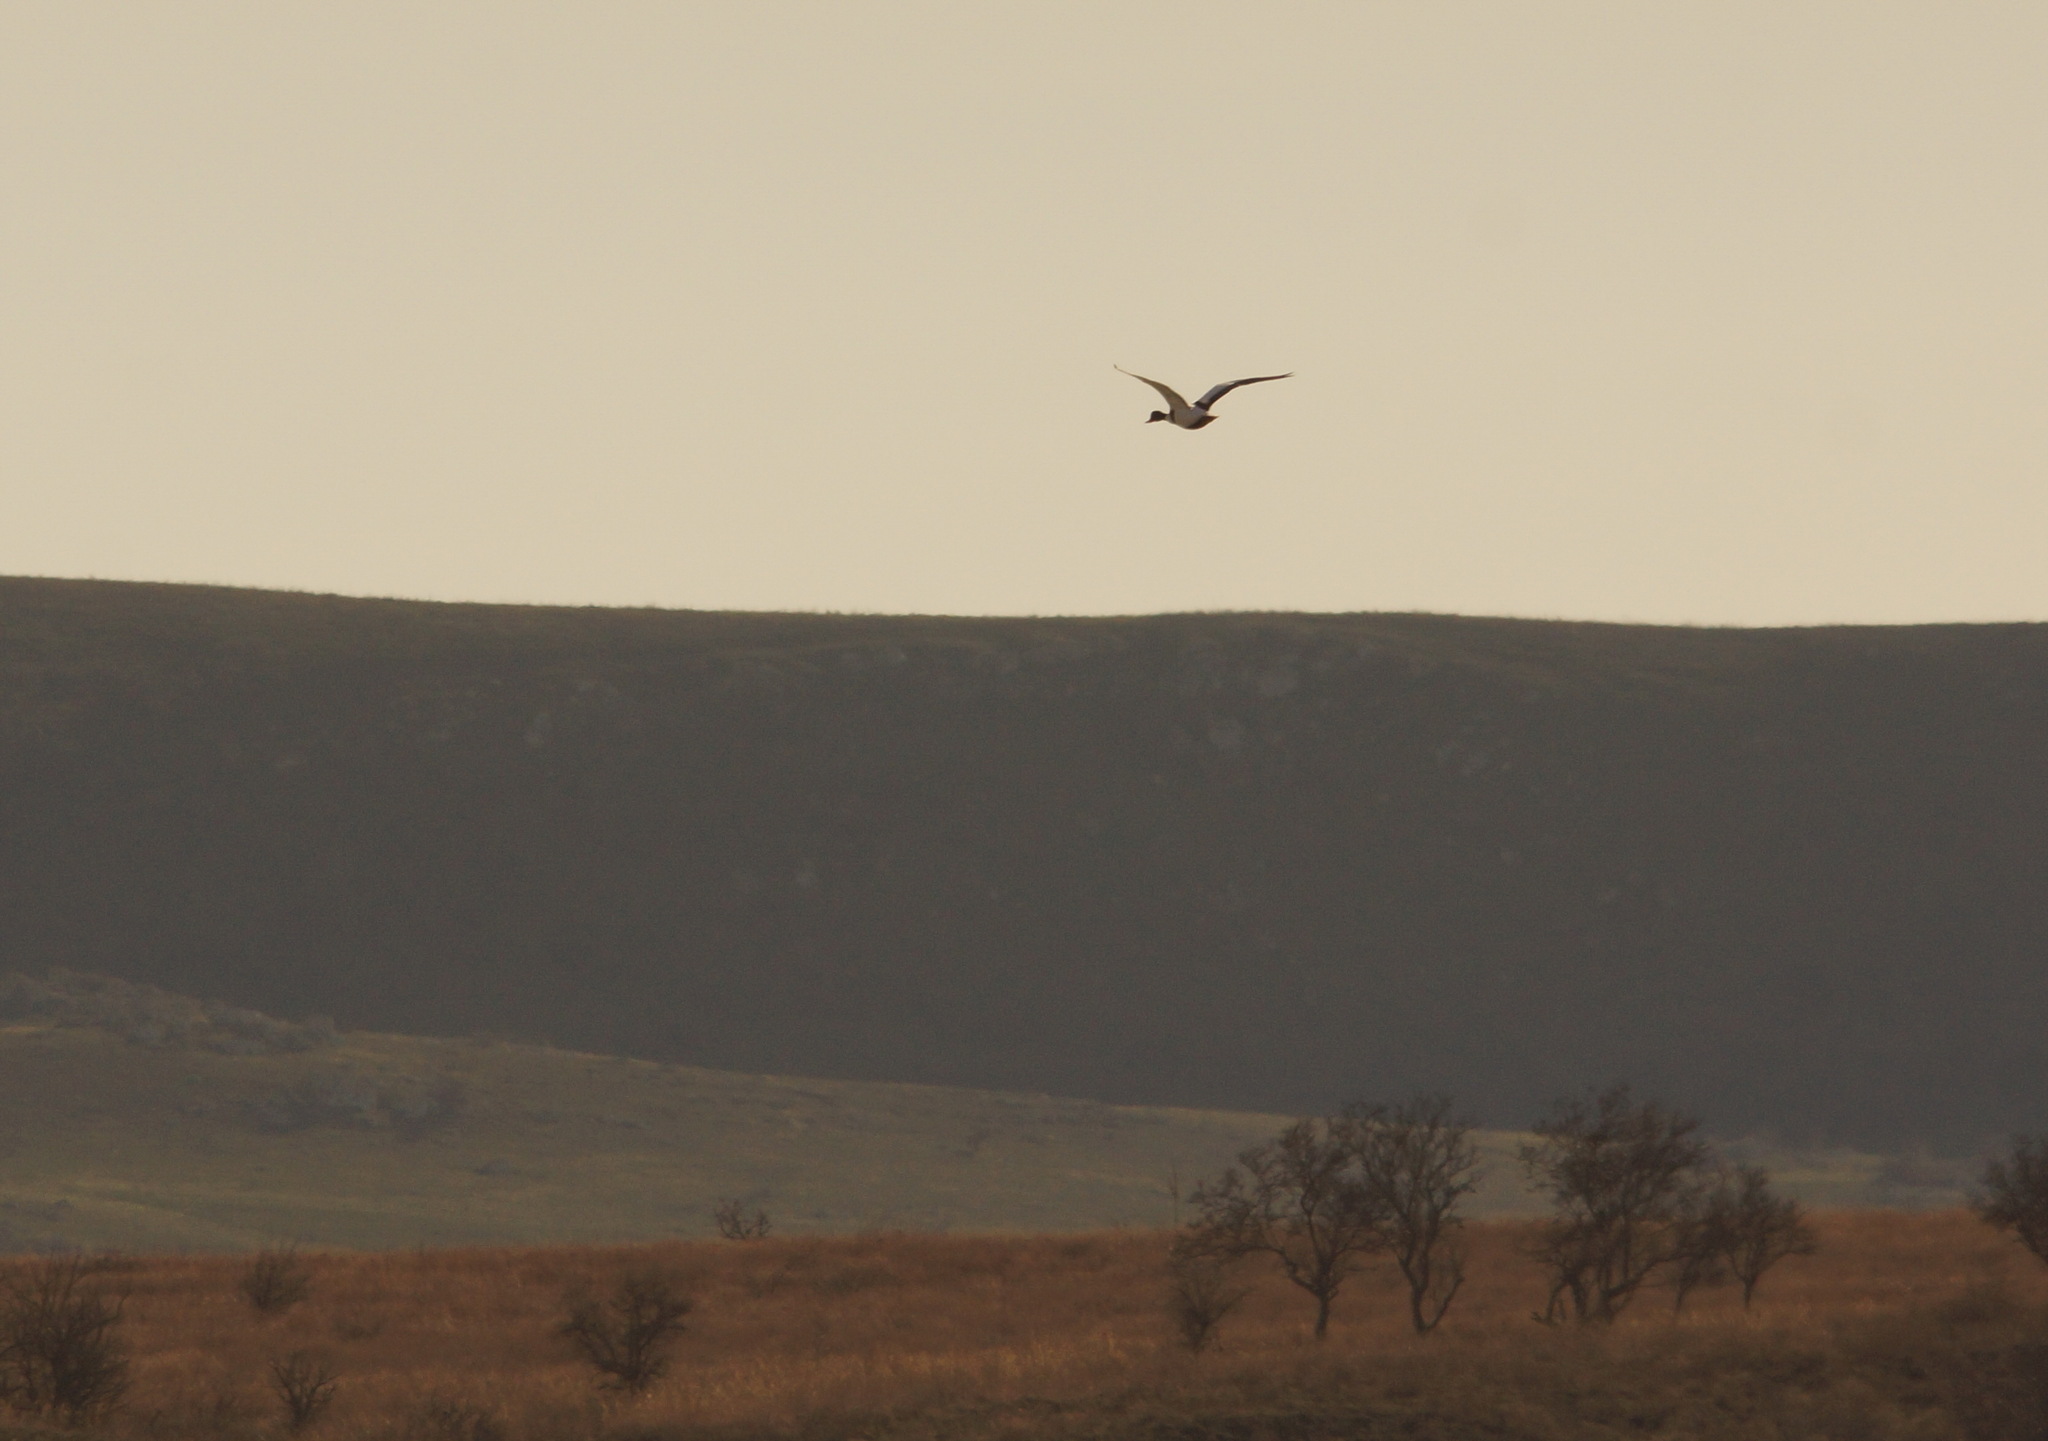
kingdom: Animalia
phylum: Chordata
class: Aves
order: Anseriformes
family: Anatidae
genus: Tadorna
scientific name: Tadorna tadorna
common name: Common shelduck
